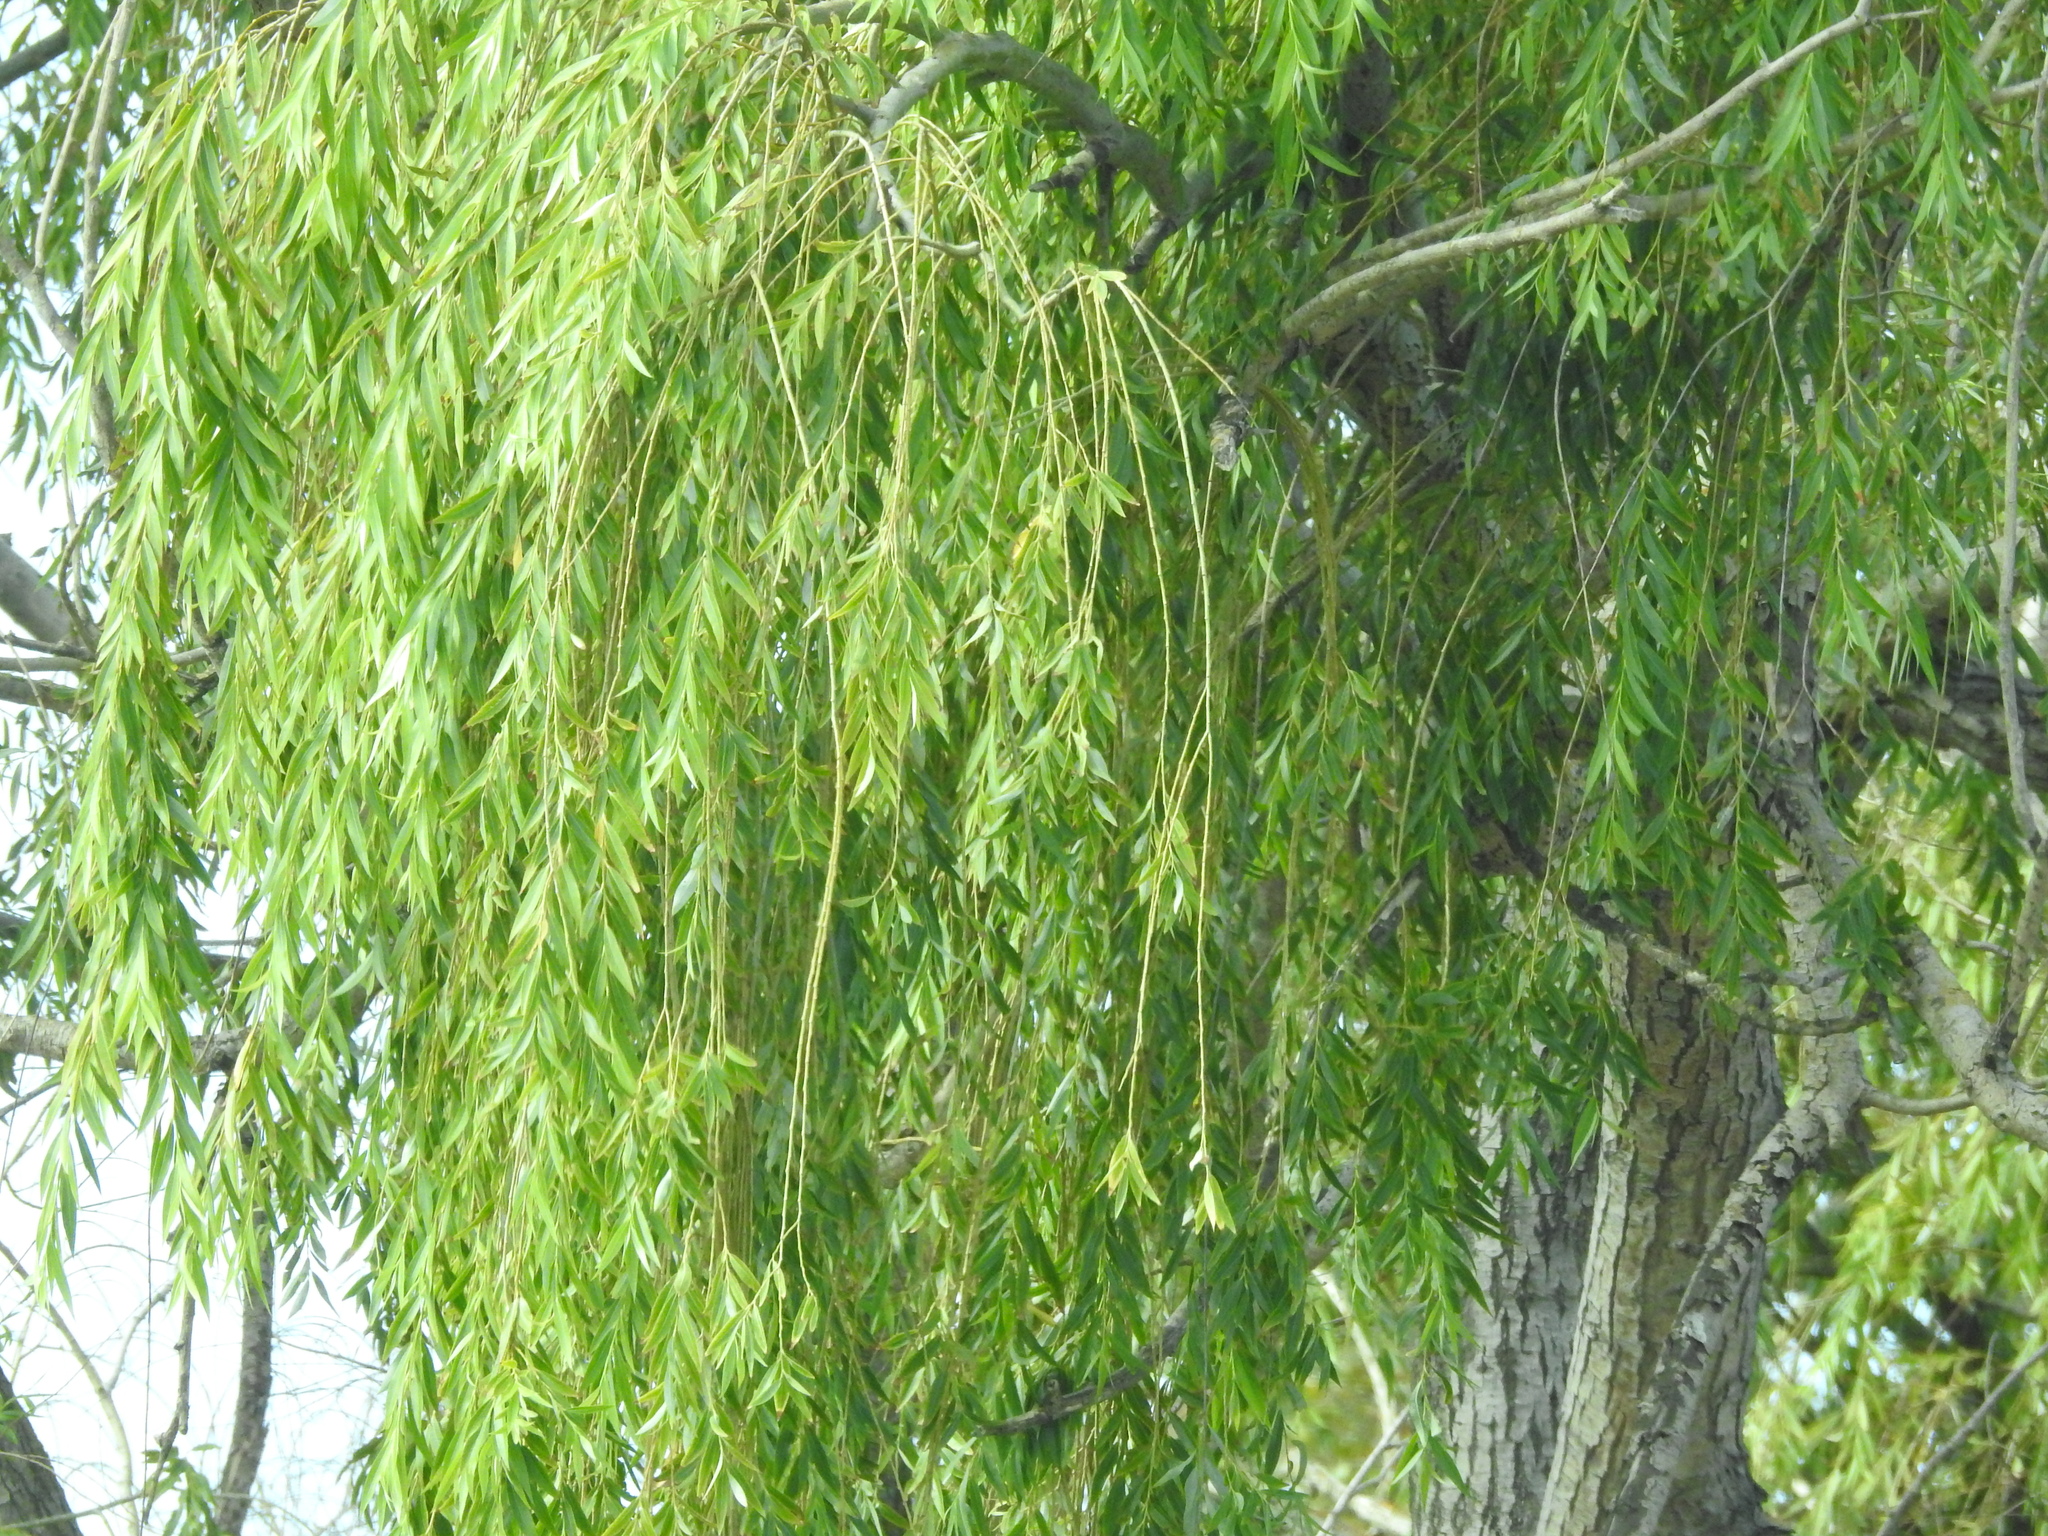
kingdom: Plantae
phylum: Tracheophyta
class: Magnoliopsida
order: Malpighiales
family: Salicaceae
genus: Salix
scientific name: Salix babylonica
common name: Weeping willow
